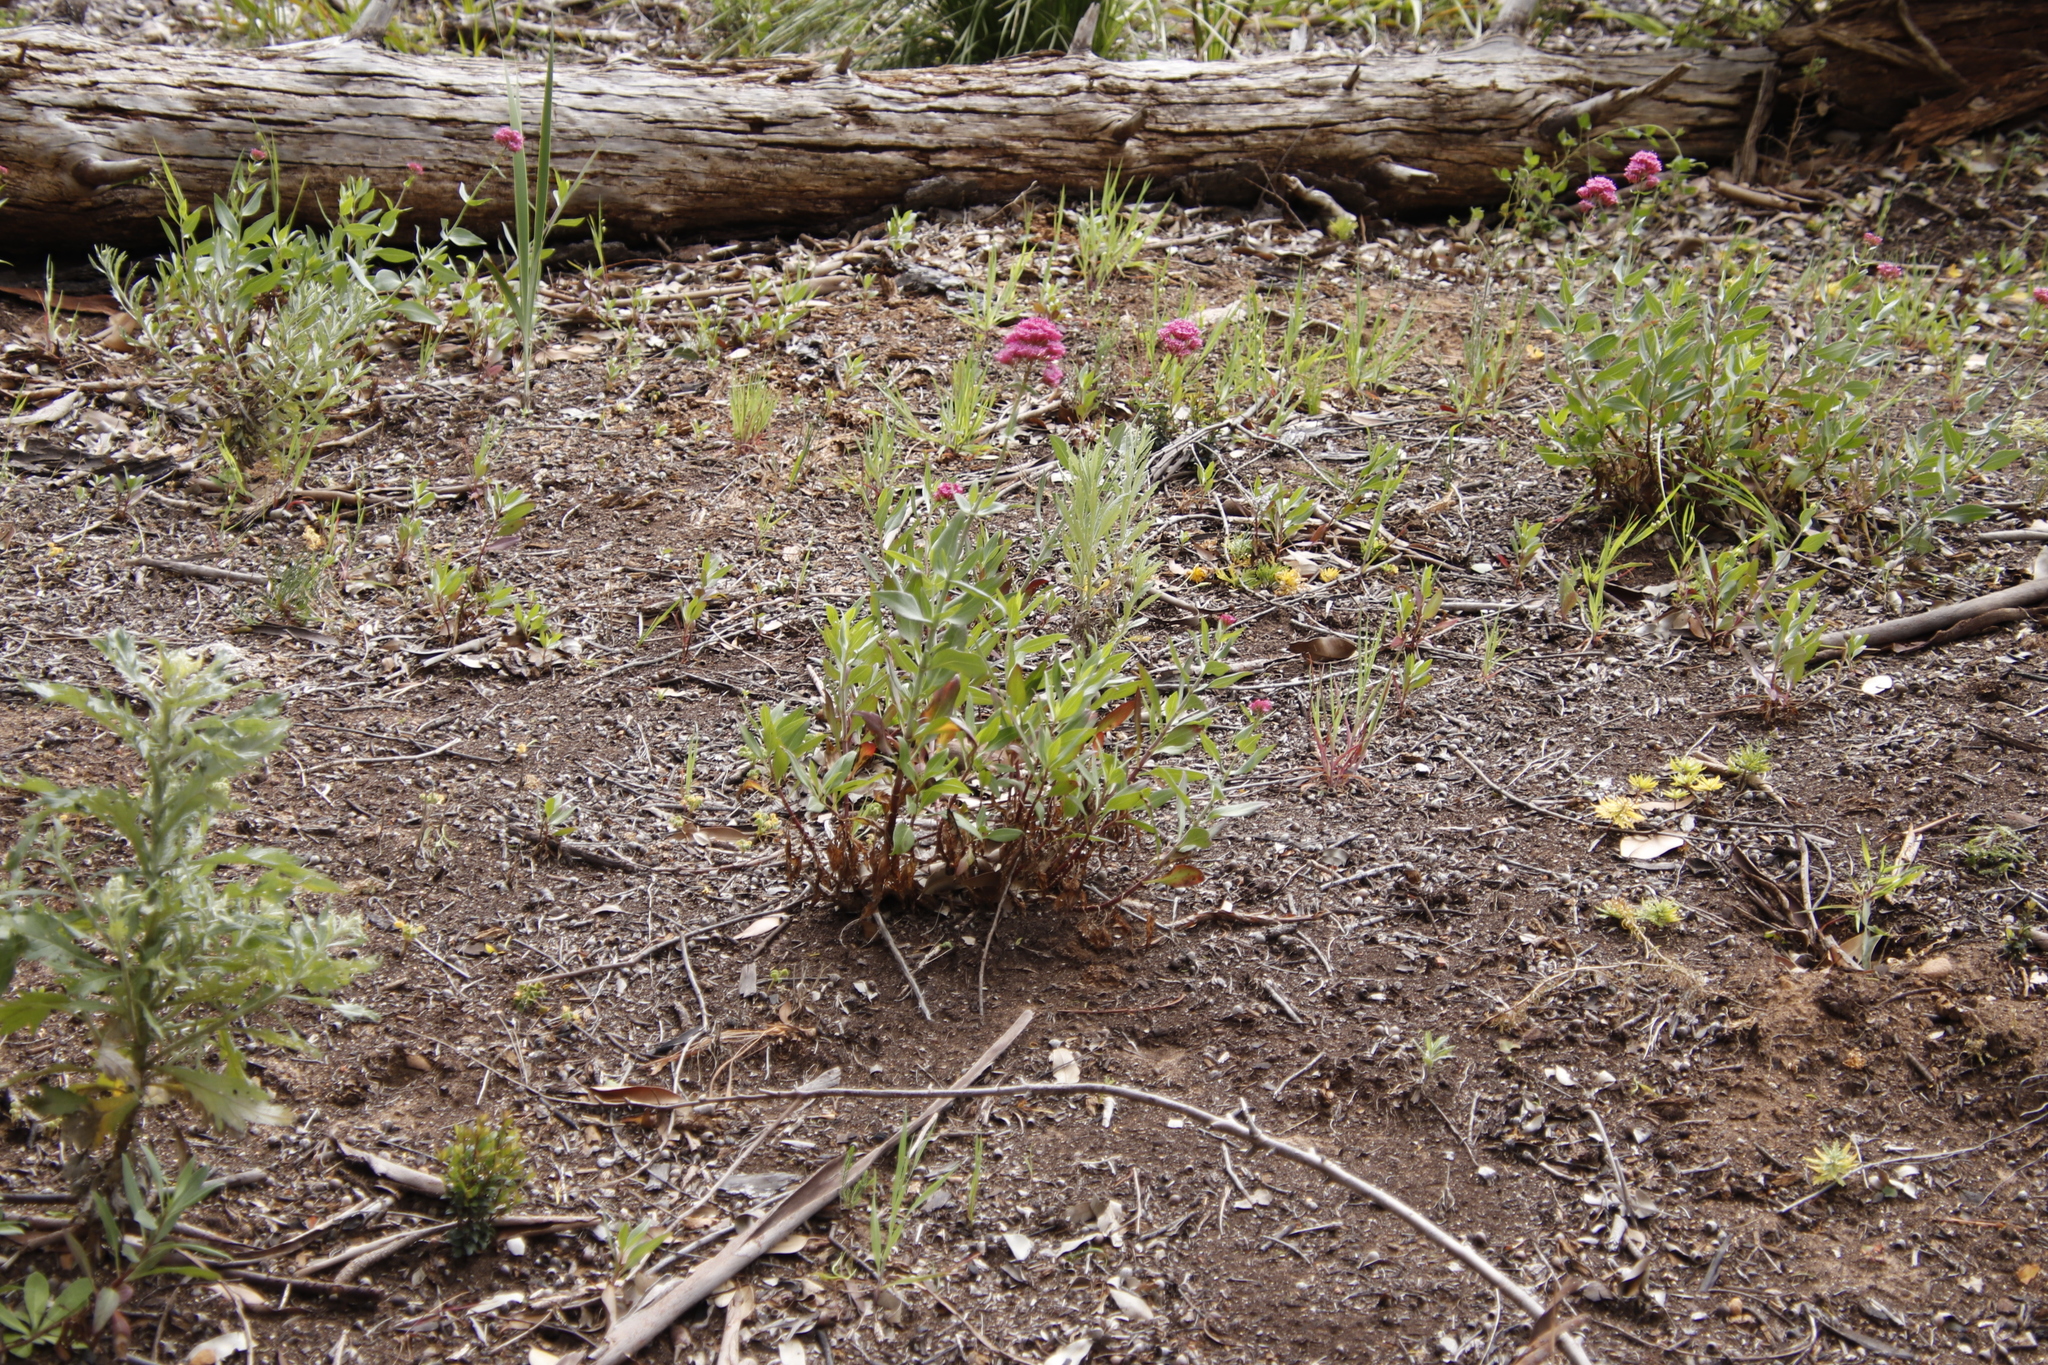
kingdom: Plantae
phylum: Tracheophyta
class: Magnoliopsida
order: Dipsacales
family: Caprifoliaceae
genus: Centranthus
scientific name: Centranthus ruber
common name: Red valerian
